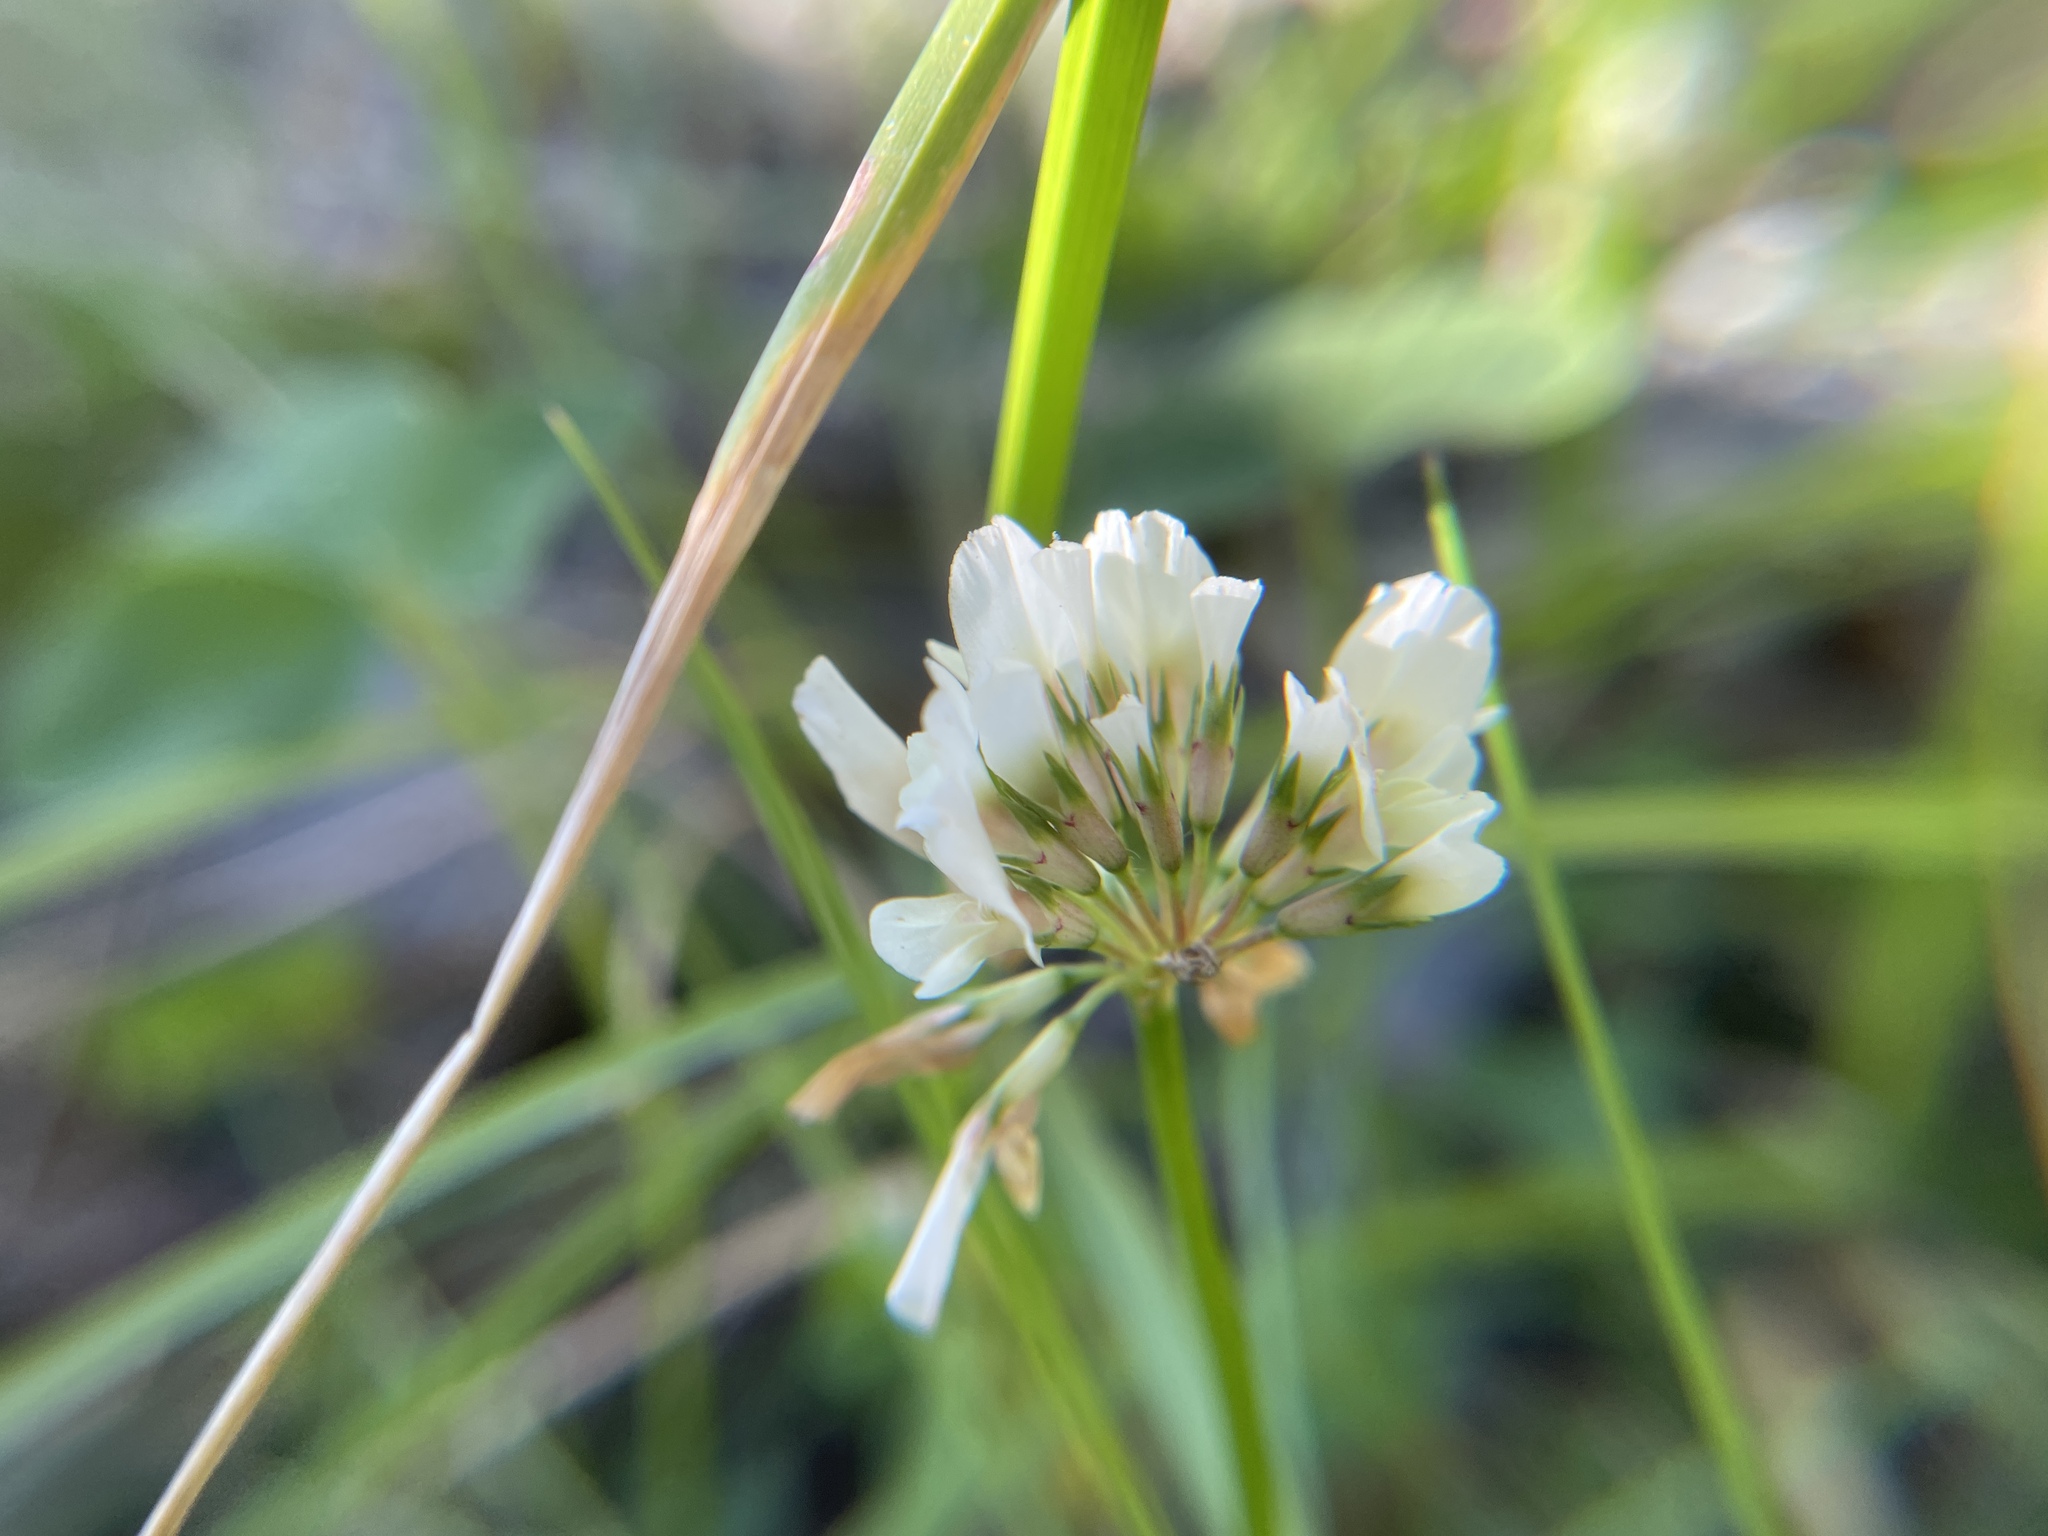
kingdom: Plantae
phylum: Tracheophyta
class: Magnoliopsida
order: Fabales
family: Fabaceae
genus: Trifolium
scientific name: Trifolium repens
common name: White clover
